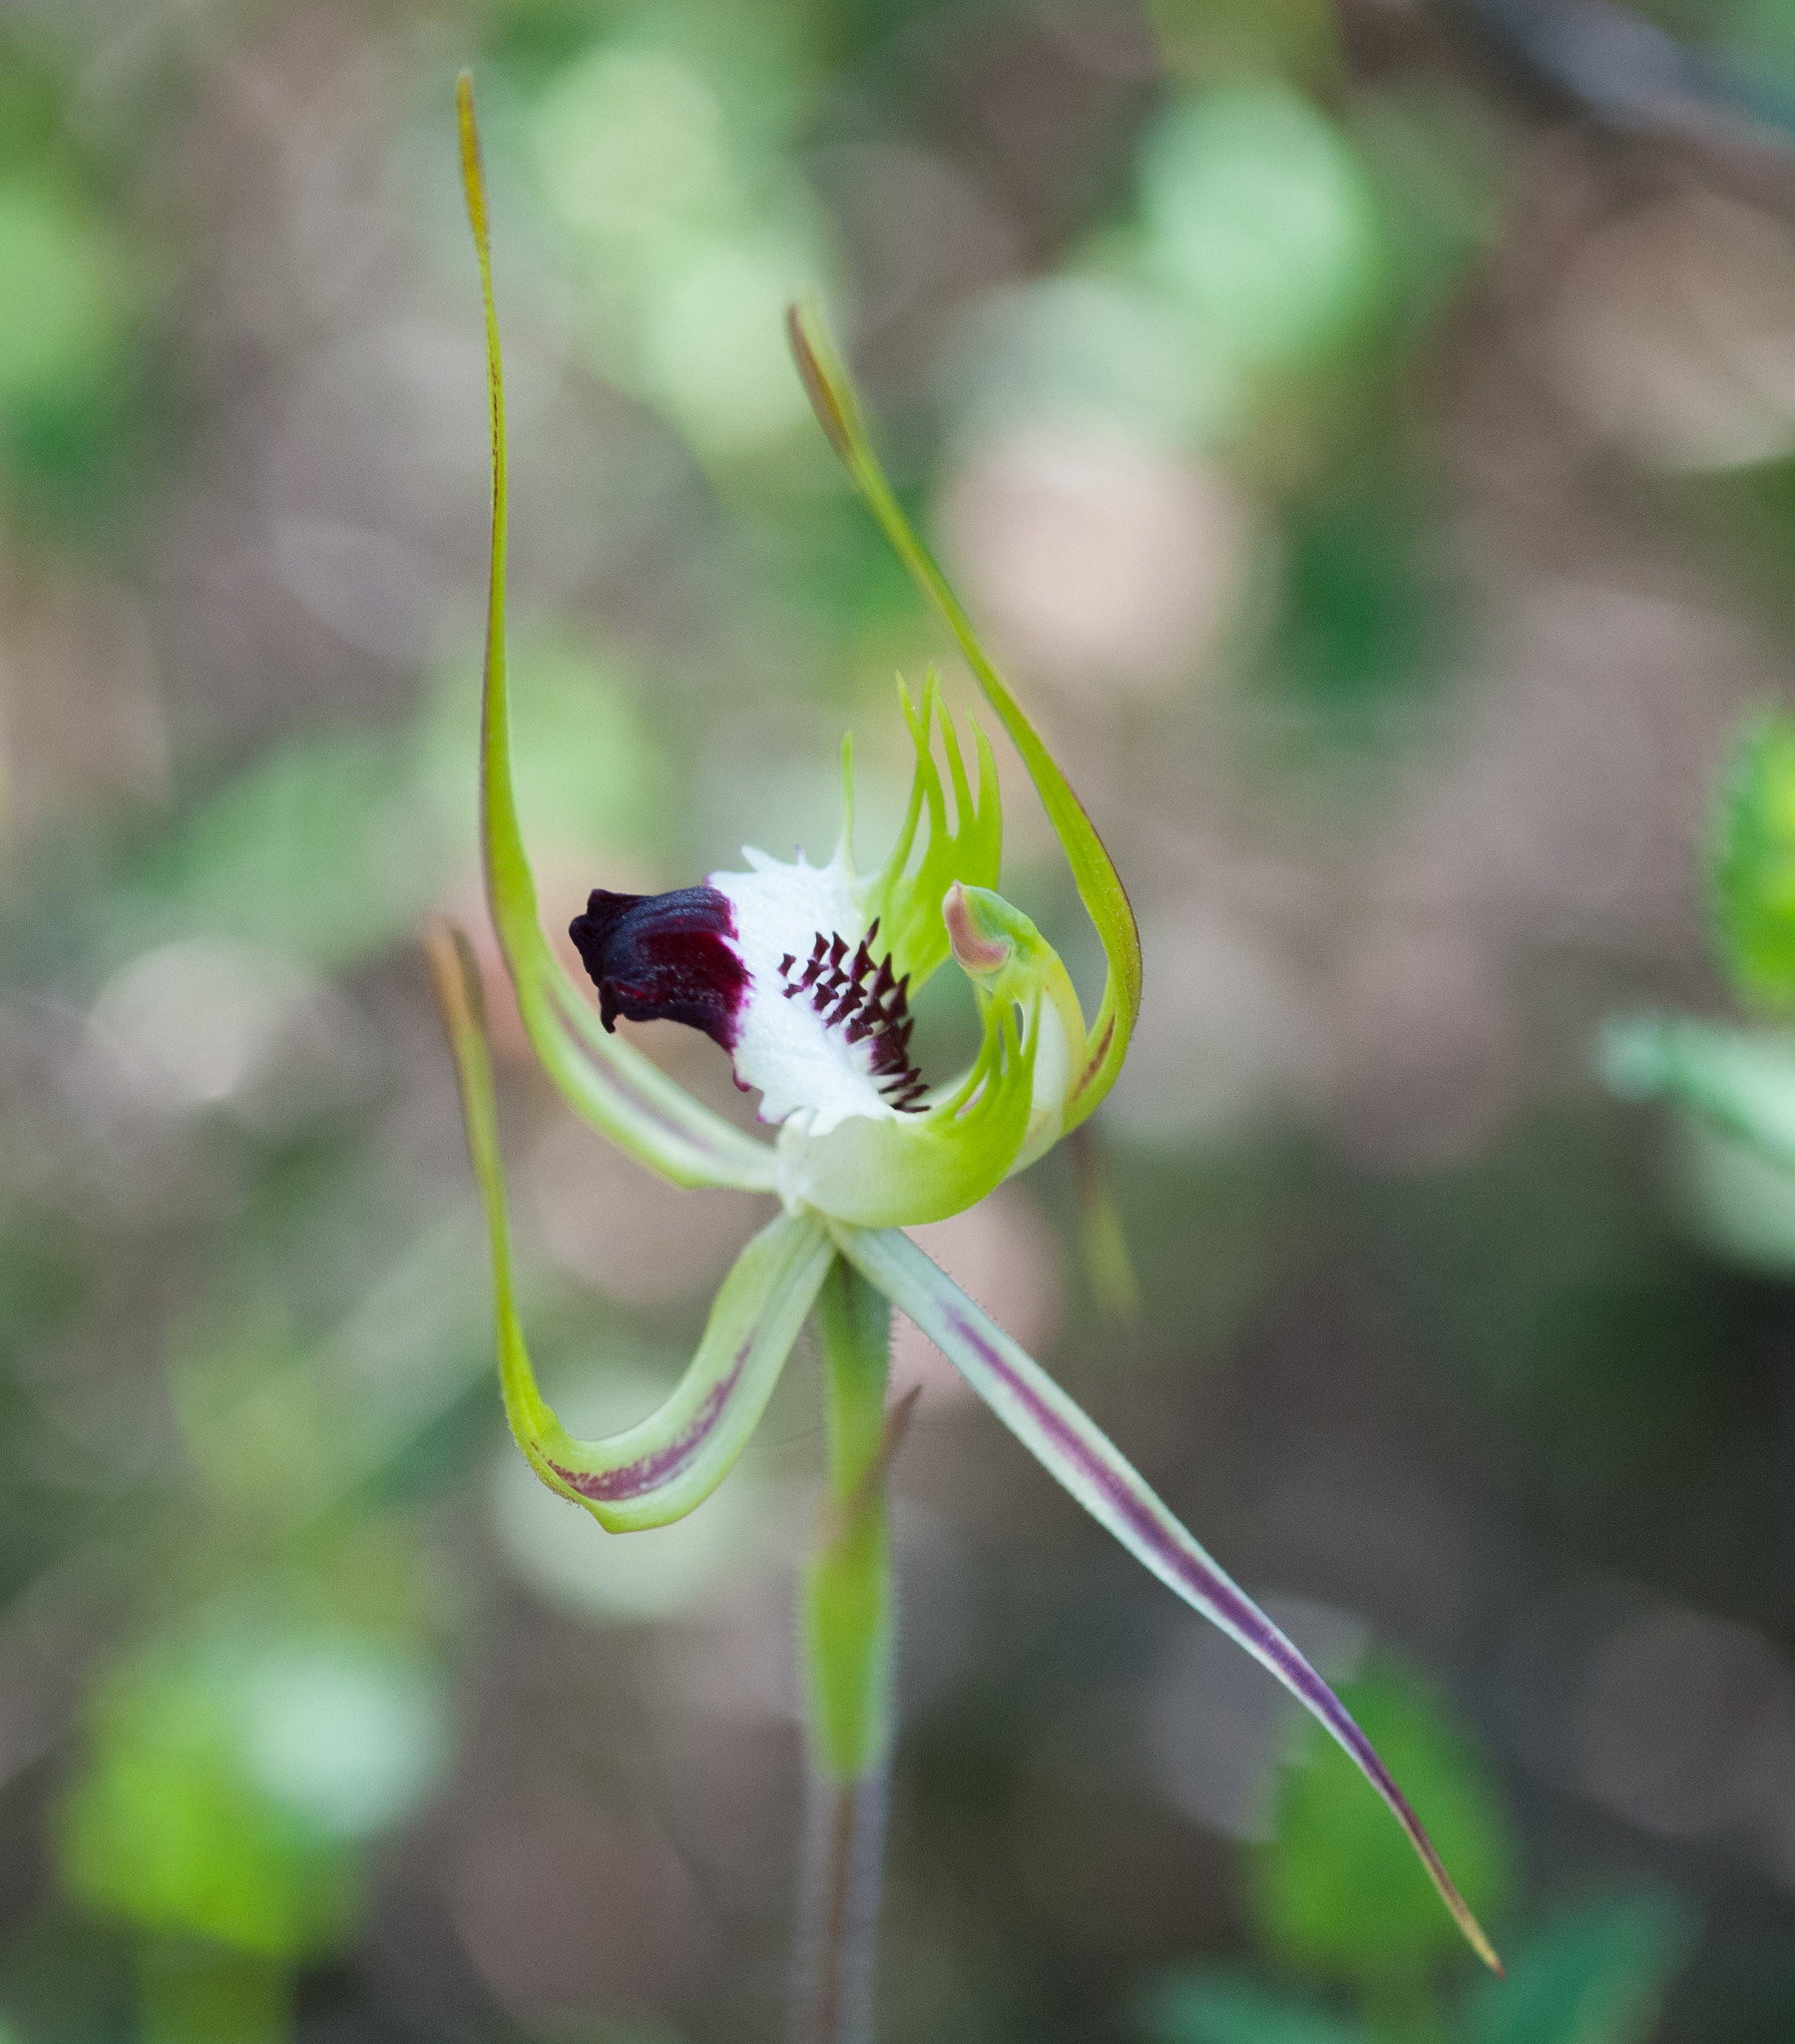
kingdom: Plantae
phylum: Tracheophyta
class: Liliopsida
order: Asparagales
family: Orchidaceae
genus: Caladenia
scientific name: Caladenia tentaculata
